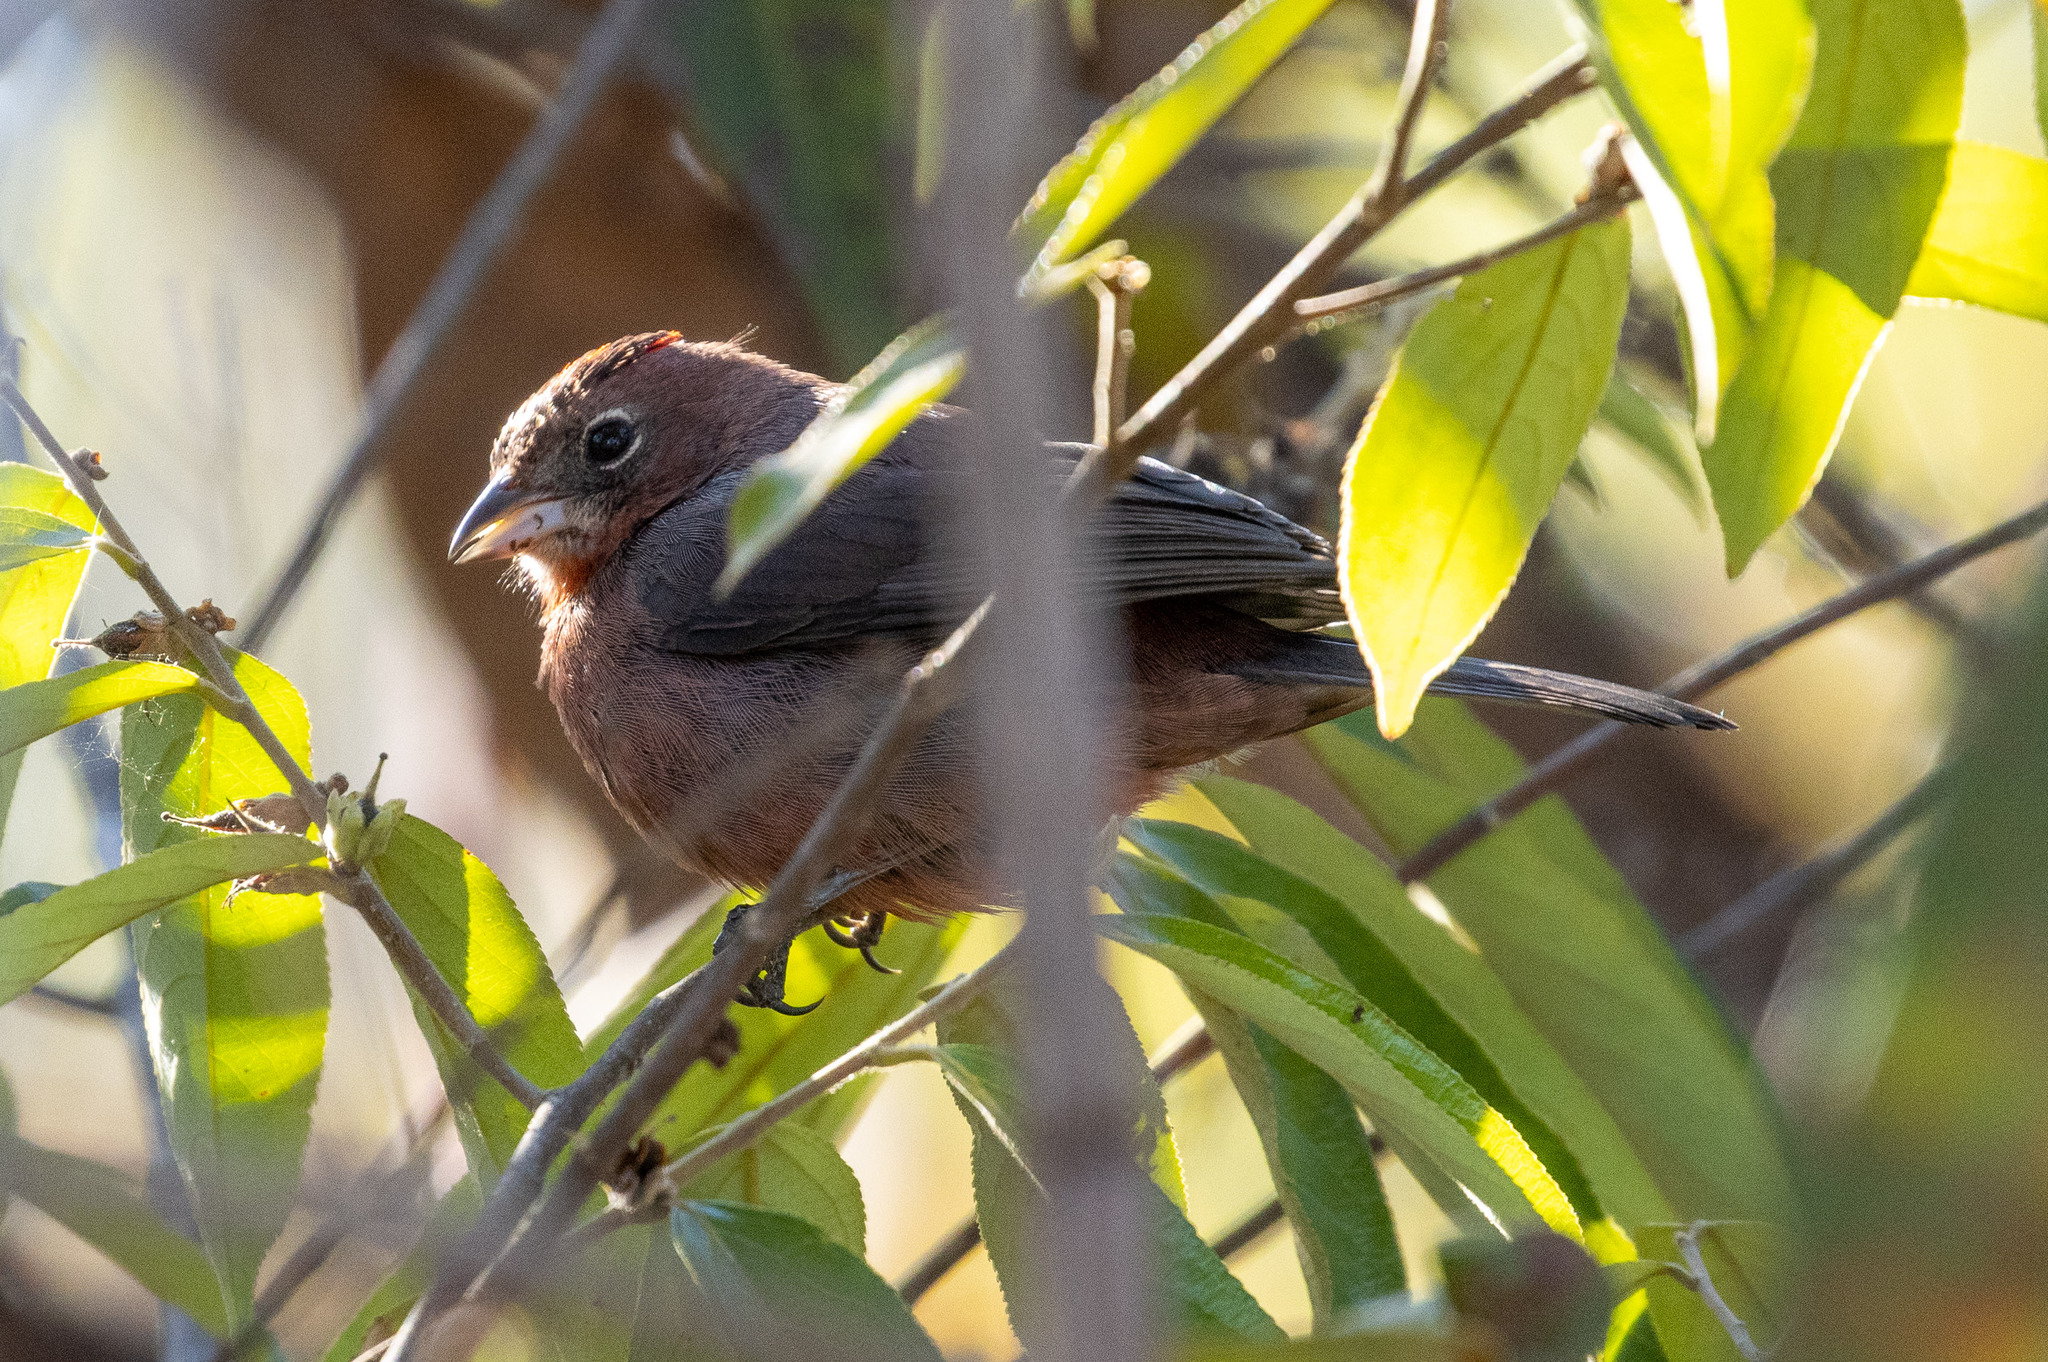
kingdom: Animalia
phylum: Chordata
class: Aves
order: Passeriformes
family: Thraupidae
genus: Coryphospingus
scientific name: Coryphospingus cucullatus
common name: Red pileated finch
